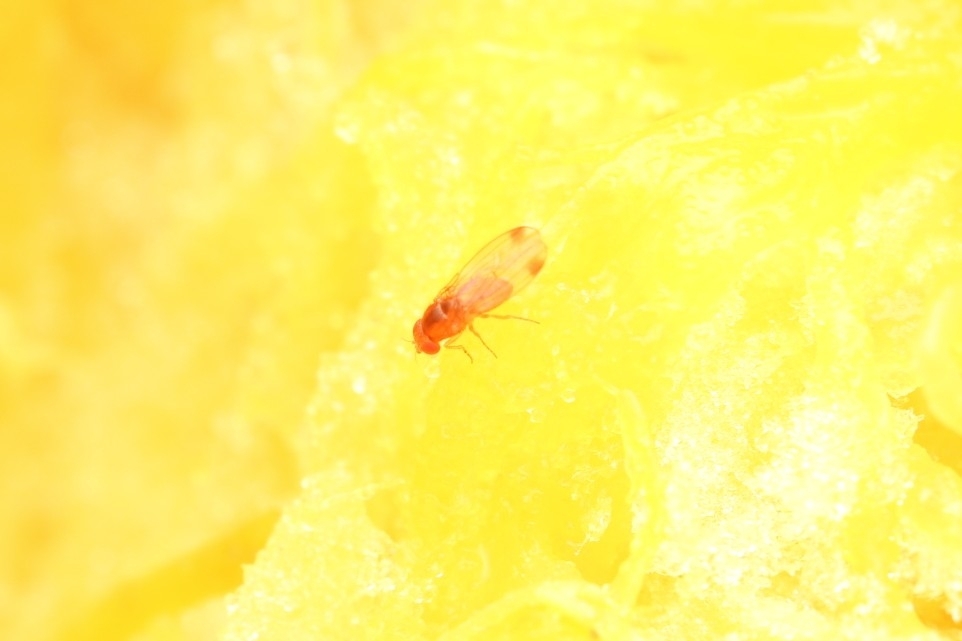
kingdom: Animalia
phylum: Arthropoda
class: Insecta
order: Diptera
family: Drosophilidae
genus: Drosophila
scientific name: Drosophila suzukii
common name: Spotted-wing drosophila
